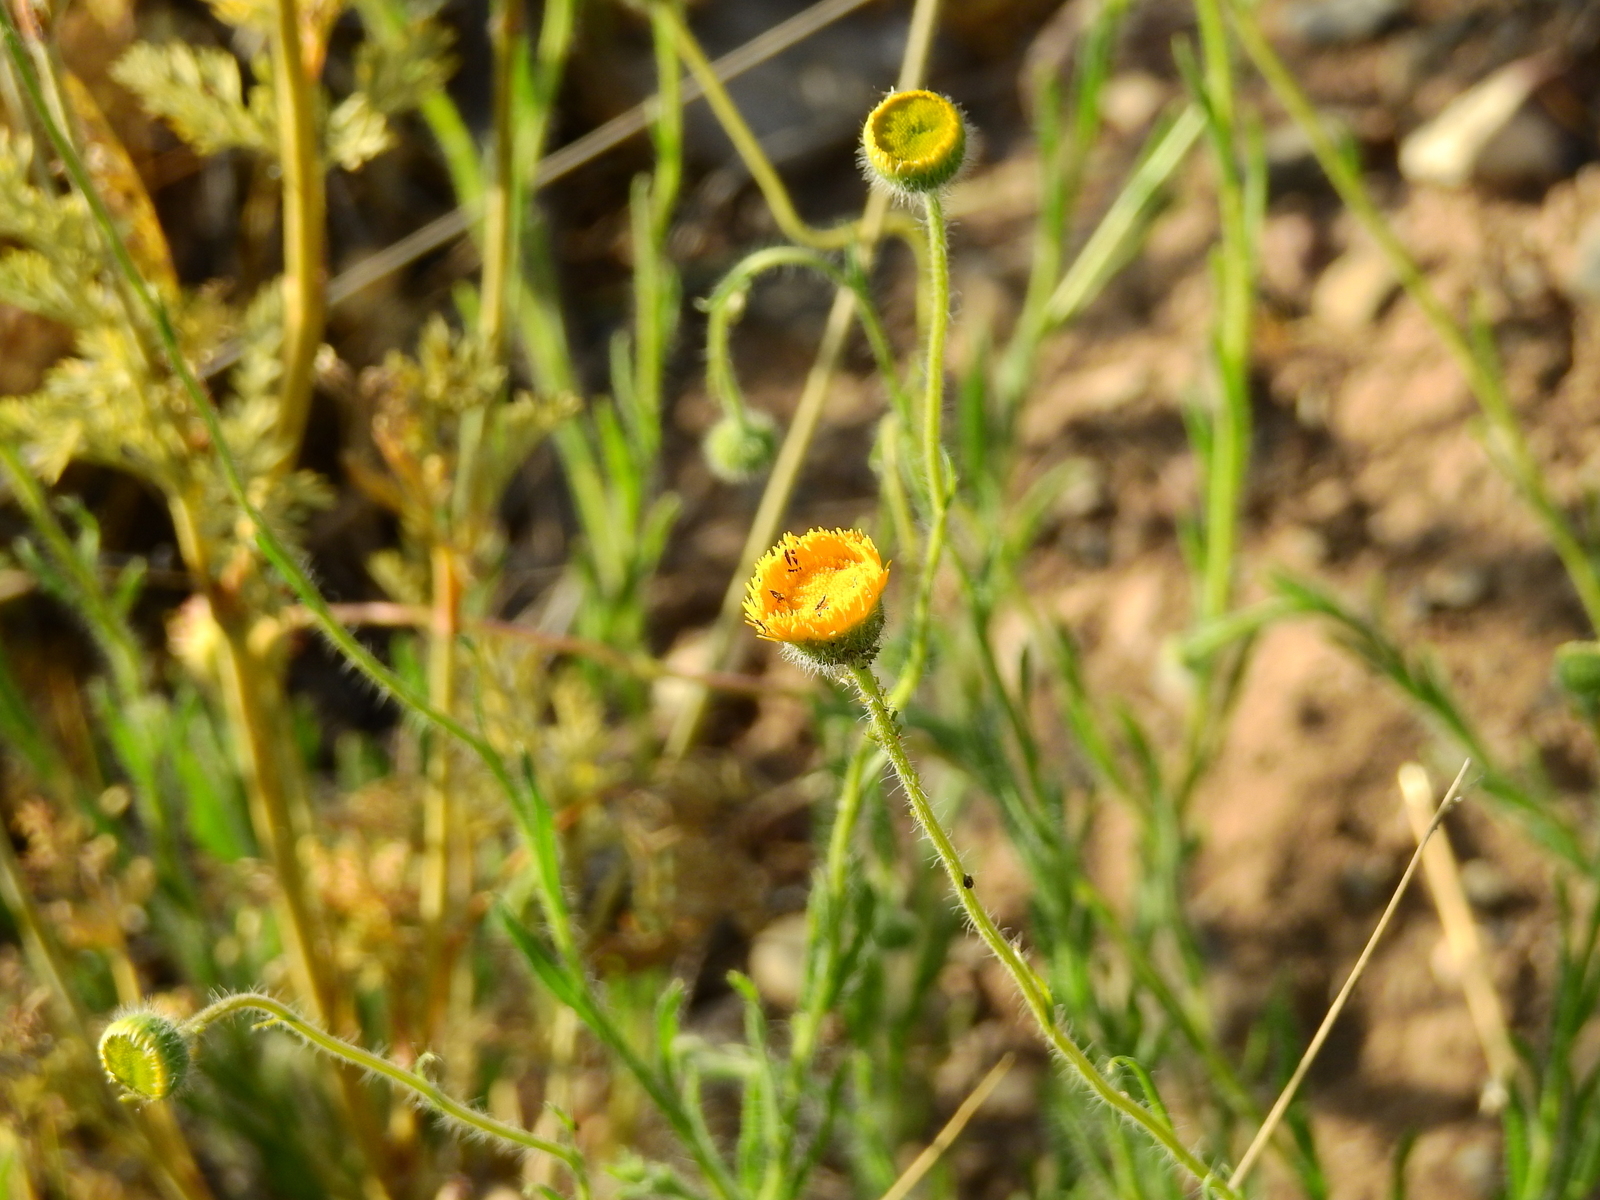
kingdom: Plantae
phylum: Tracheophyta
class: Magnoliopsida
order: Asterales
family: Asteraceae
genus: Hysterionica
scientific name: Hysterionica jasionoides
